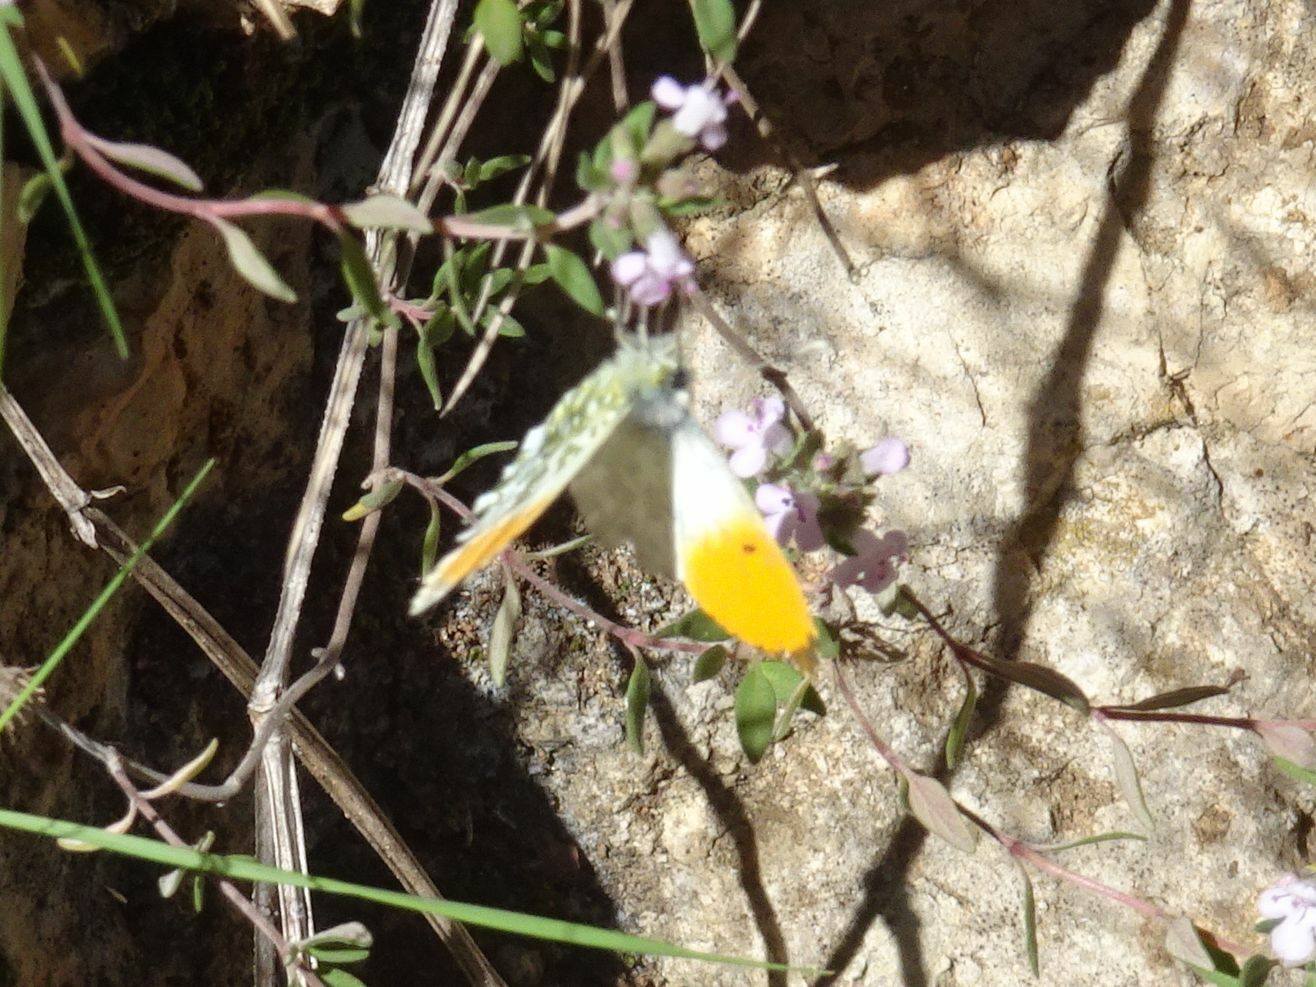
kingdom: Animalia
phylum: Arthropoda
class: Insecta
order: Lepidoptera
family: Pieridae
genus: Anthocharis
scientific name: Anthocharis cardamines
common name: Orange-tip
